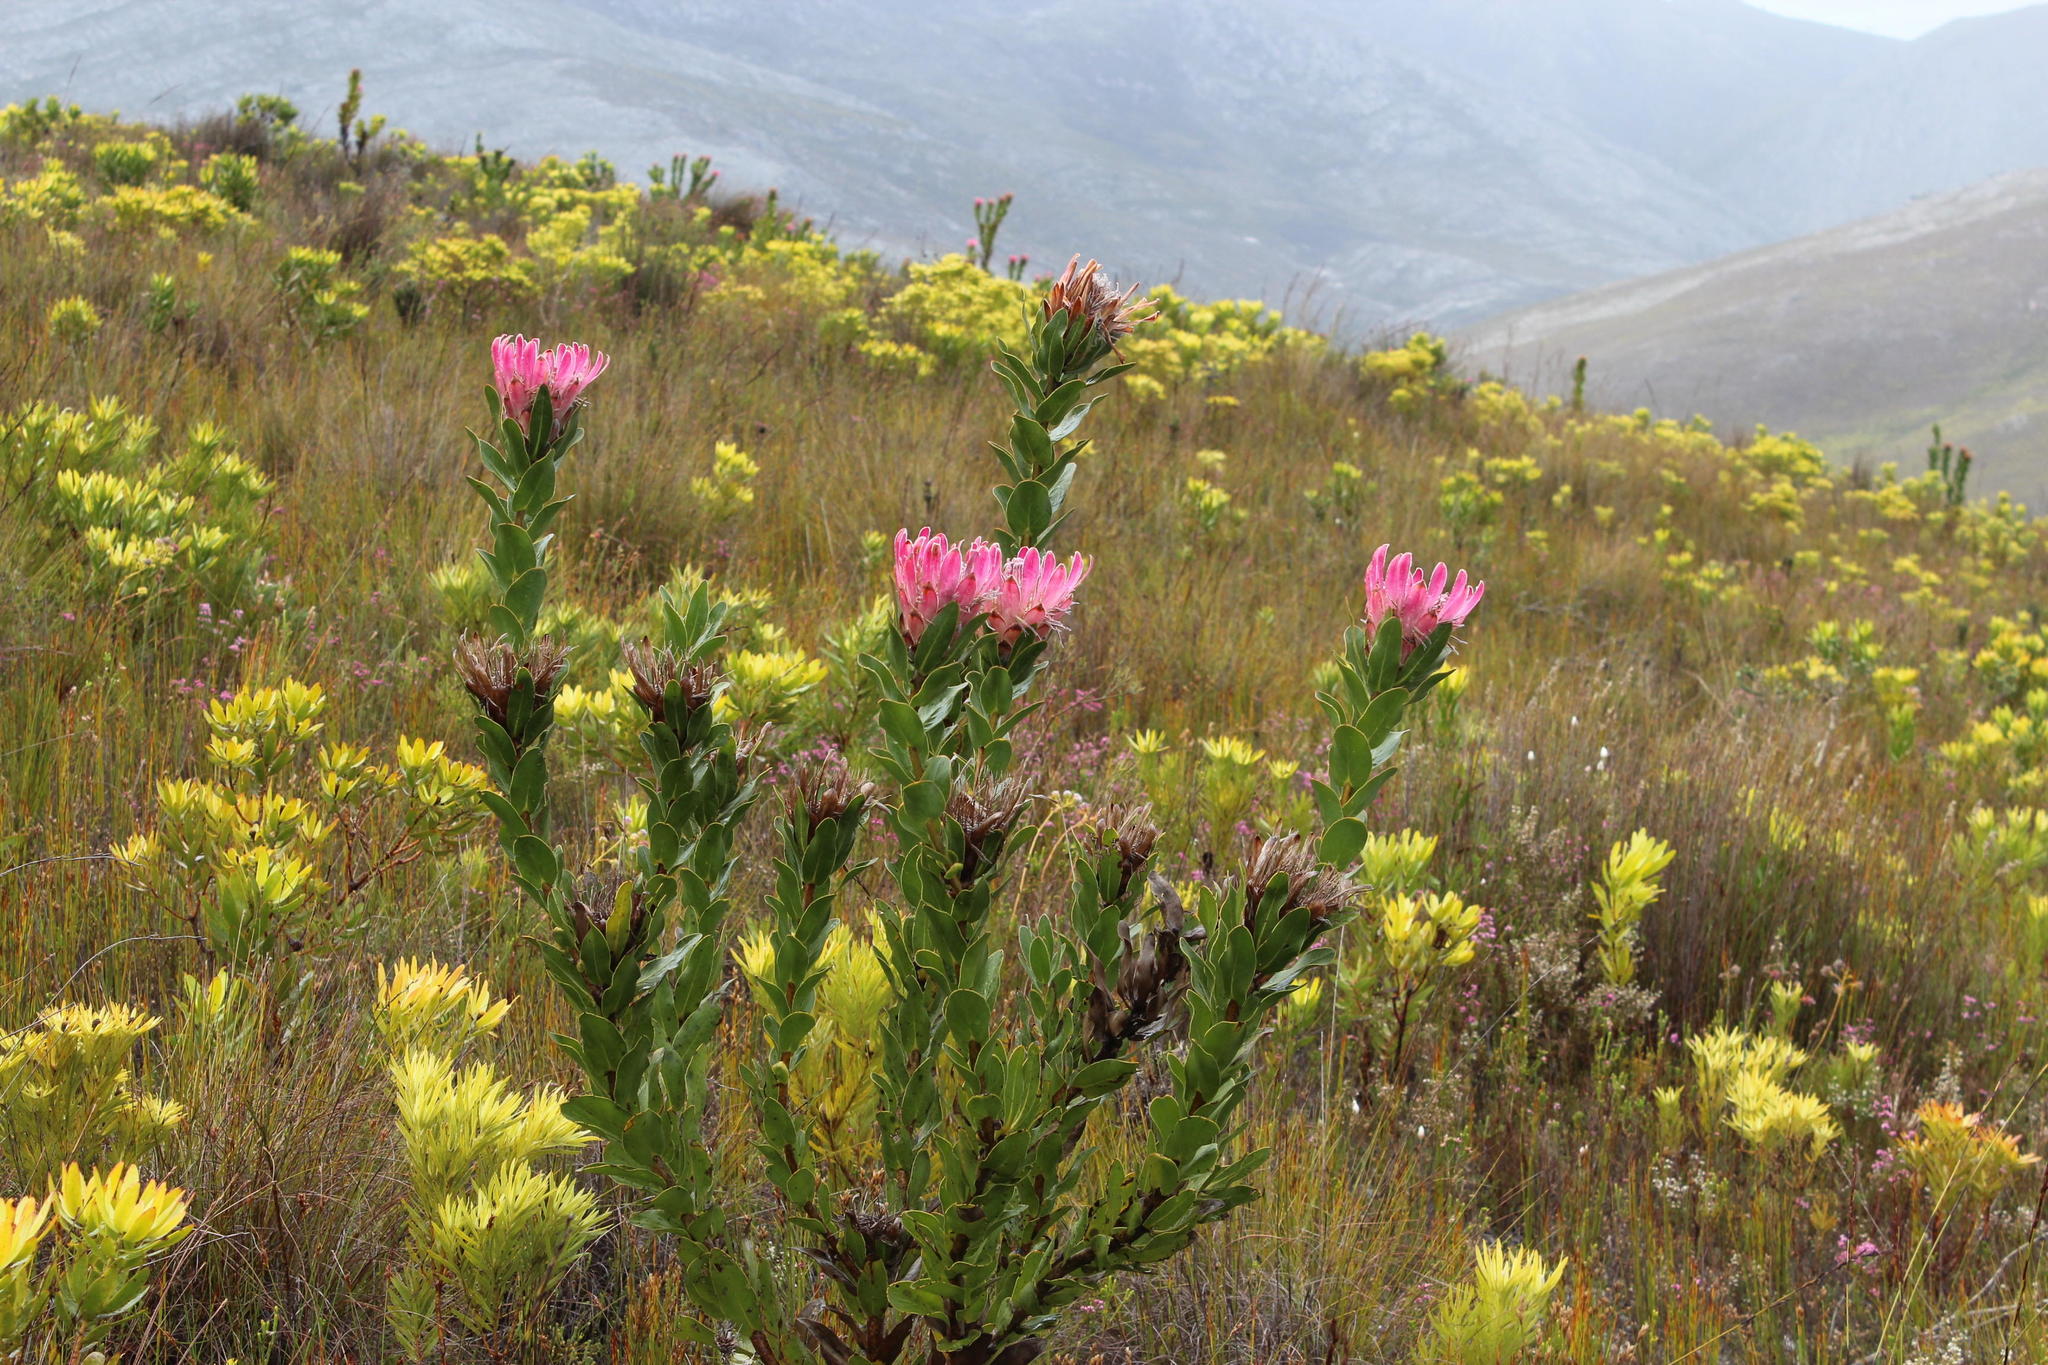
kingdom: Plantae
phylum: Tracheophyta
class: Magnoliopsida
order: Proteales
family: Proteaceae
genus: Protea
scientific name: Protea compacta
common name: Bot river protea
